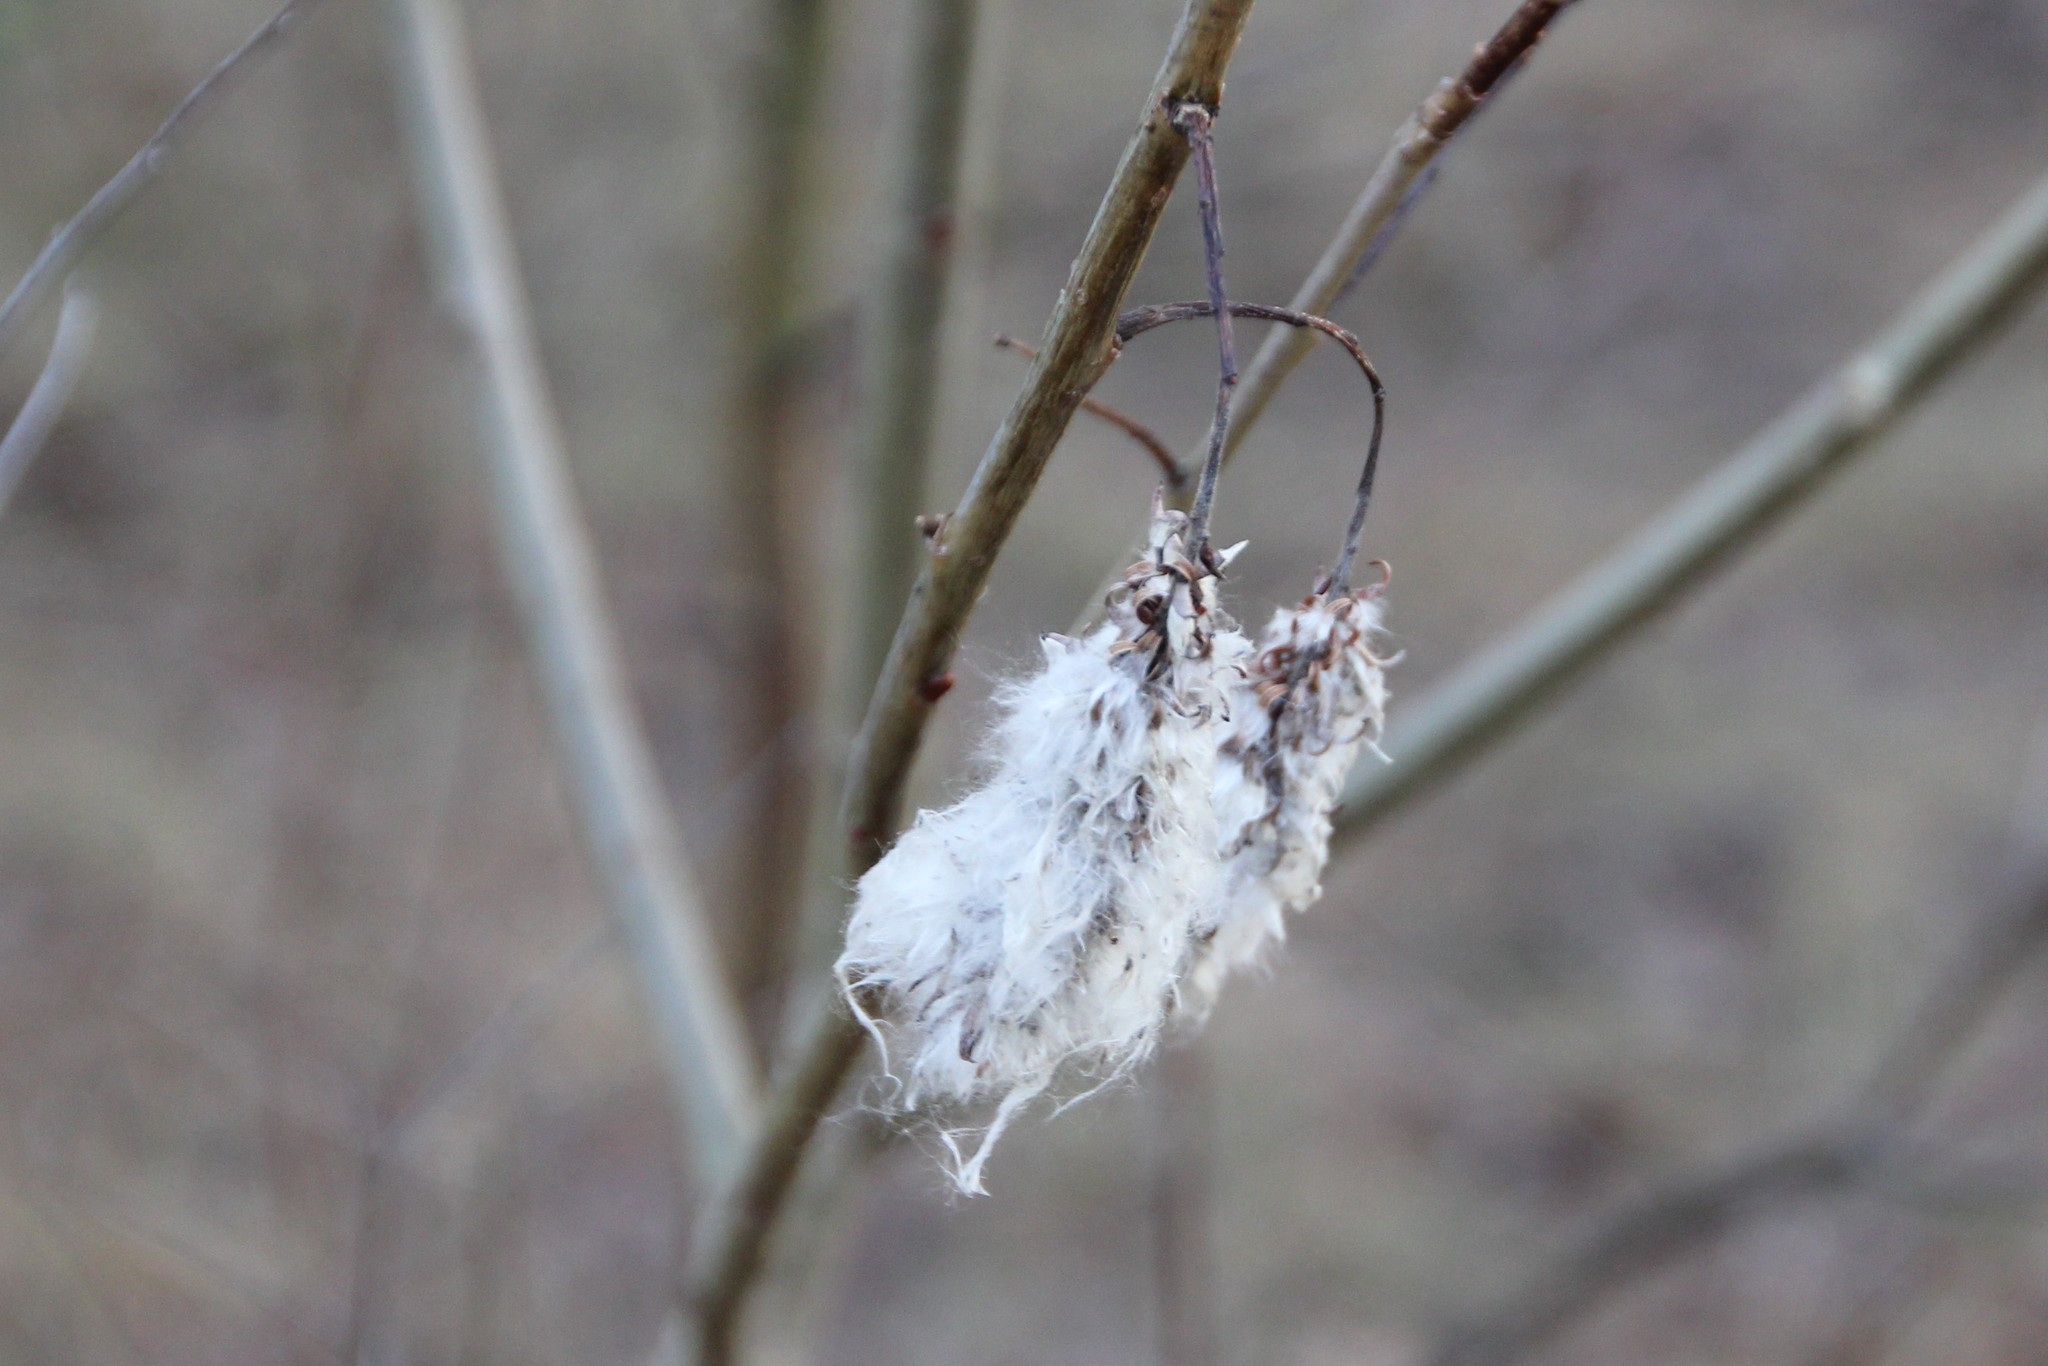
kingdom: Plantae
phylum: Tracheophyta
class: Magnoliopsida
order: Malpighiales
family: Salicaceae
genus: Salix
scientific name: Salix pentandra
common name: Bay willow
